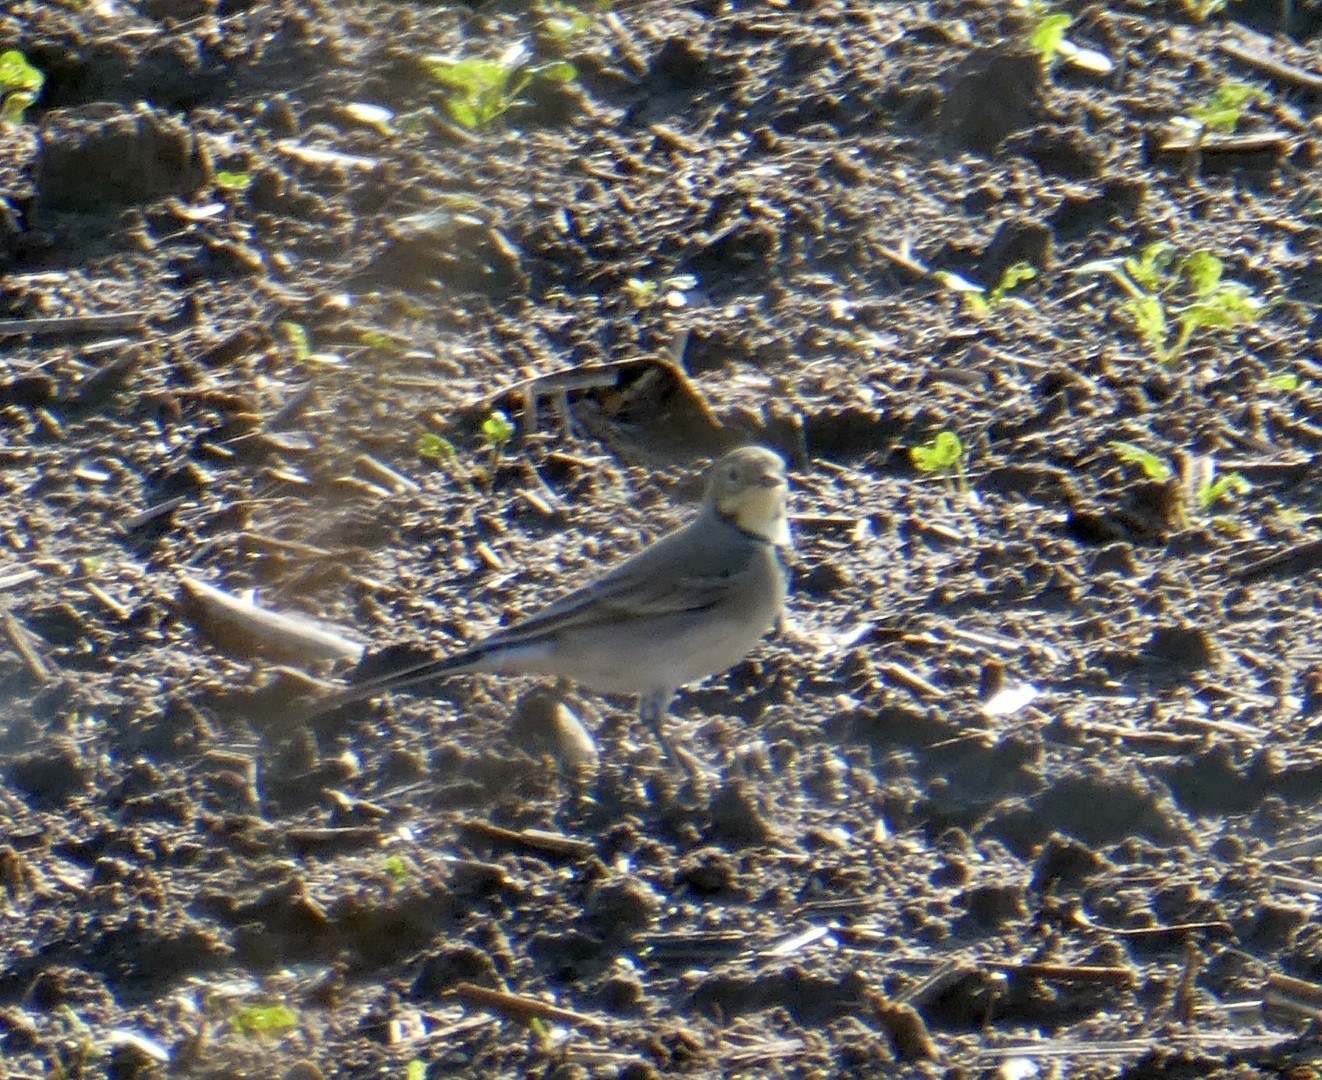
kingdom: Animalia
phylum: Chordata
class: Aves
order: Passeriformes
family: Motacillidae
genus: Motacilla
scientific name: Motacilla alba
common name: White wagtail
